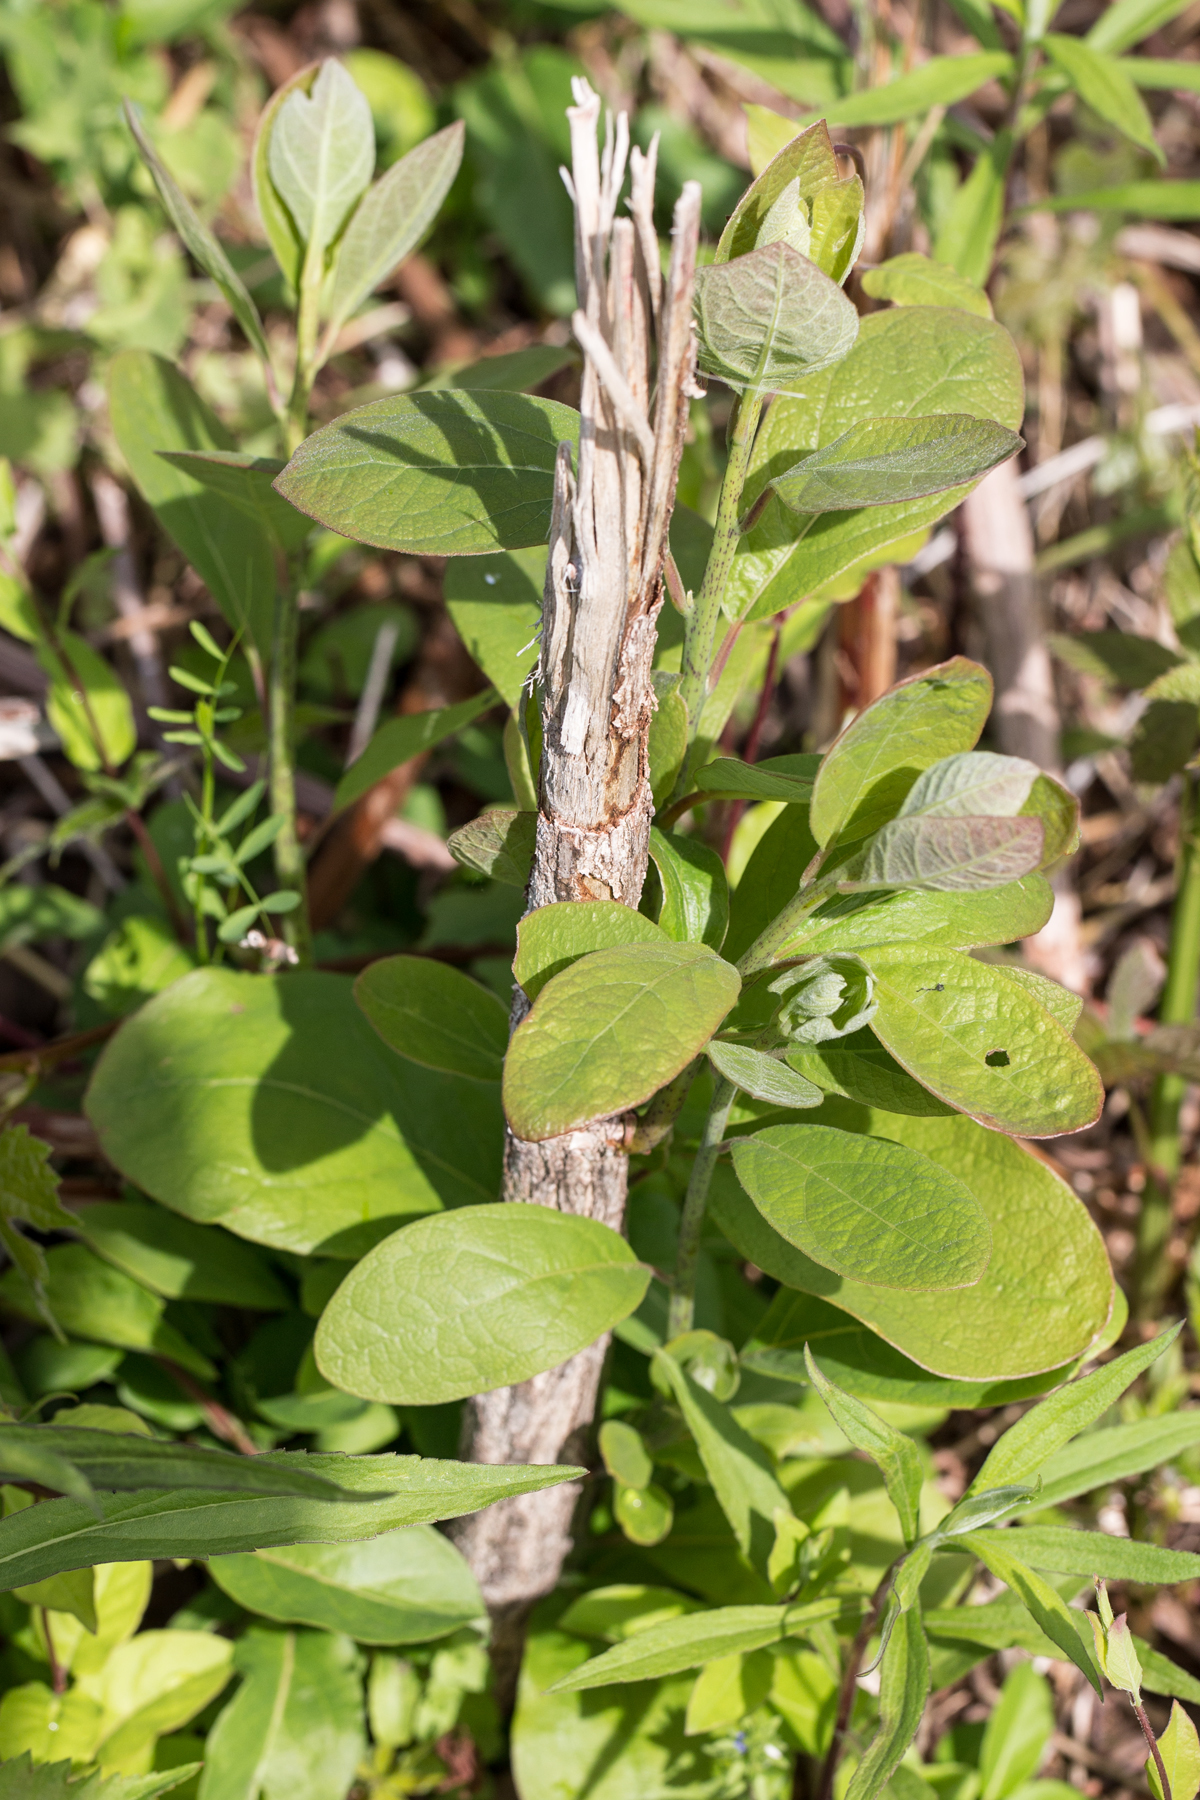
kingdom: Plantae
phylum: Tracheophyta
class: Magnoliopsida
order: Laurales
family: Lauraceae
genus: Sassafras
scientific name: Sassafras albidum
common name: Sassafras
